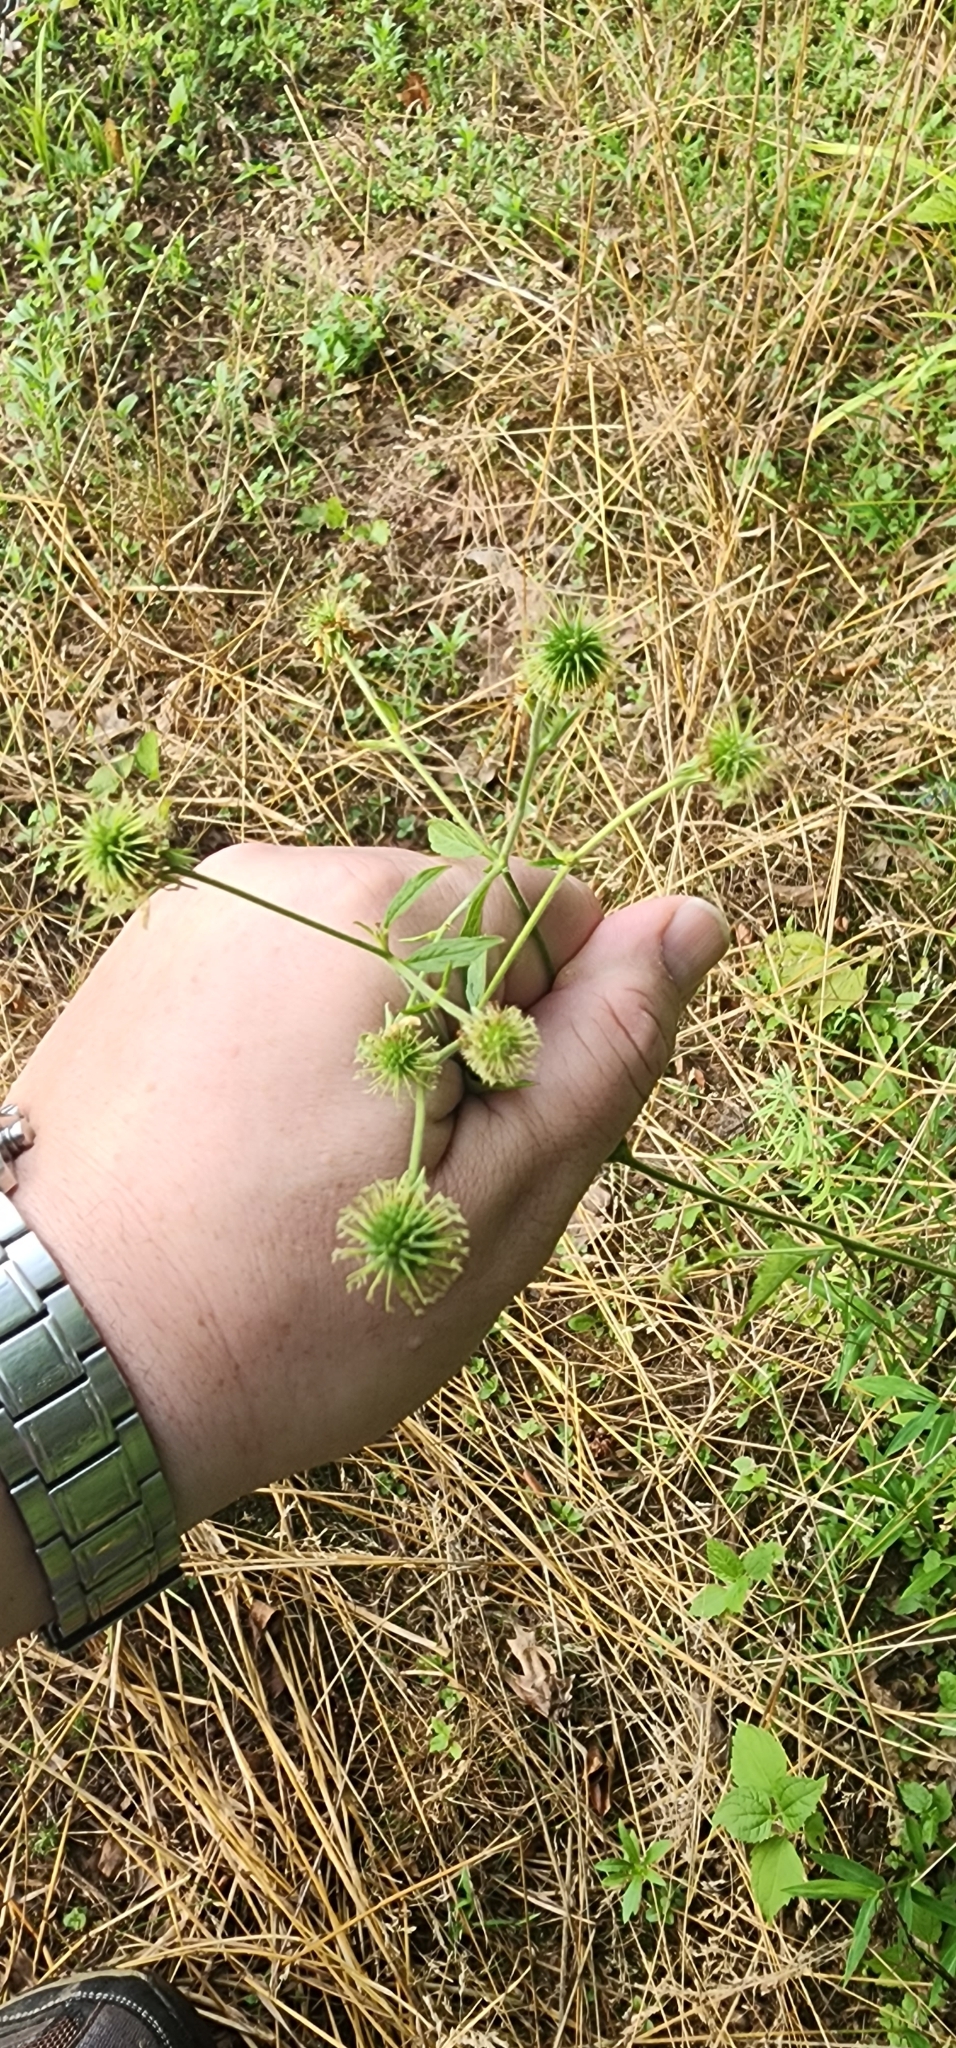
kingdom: Plantae
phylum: Tracheophyta
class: Magnoliopsida
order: Rosales
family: Rosaceae
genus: Geum
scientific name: Geum canadense
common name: White avens
